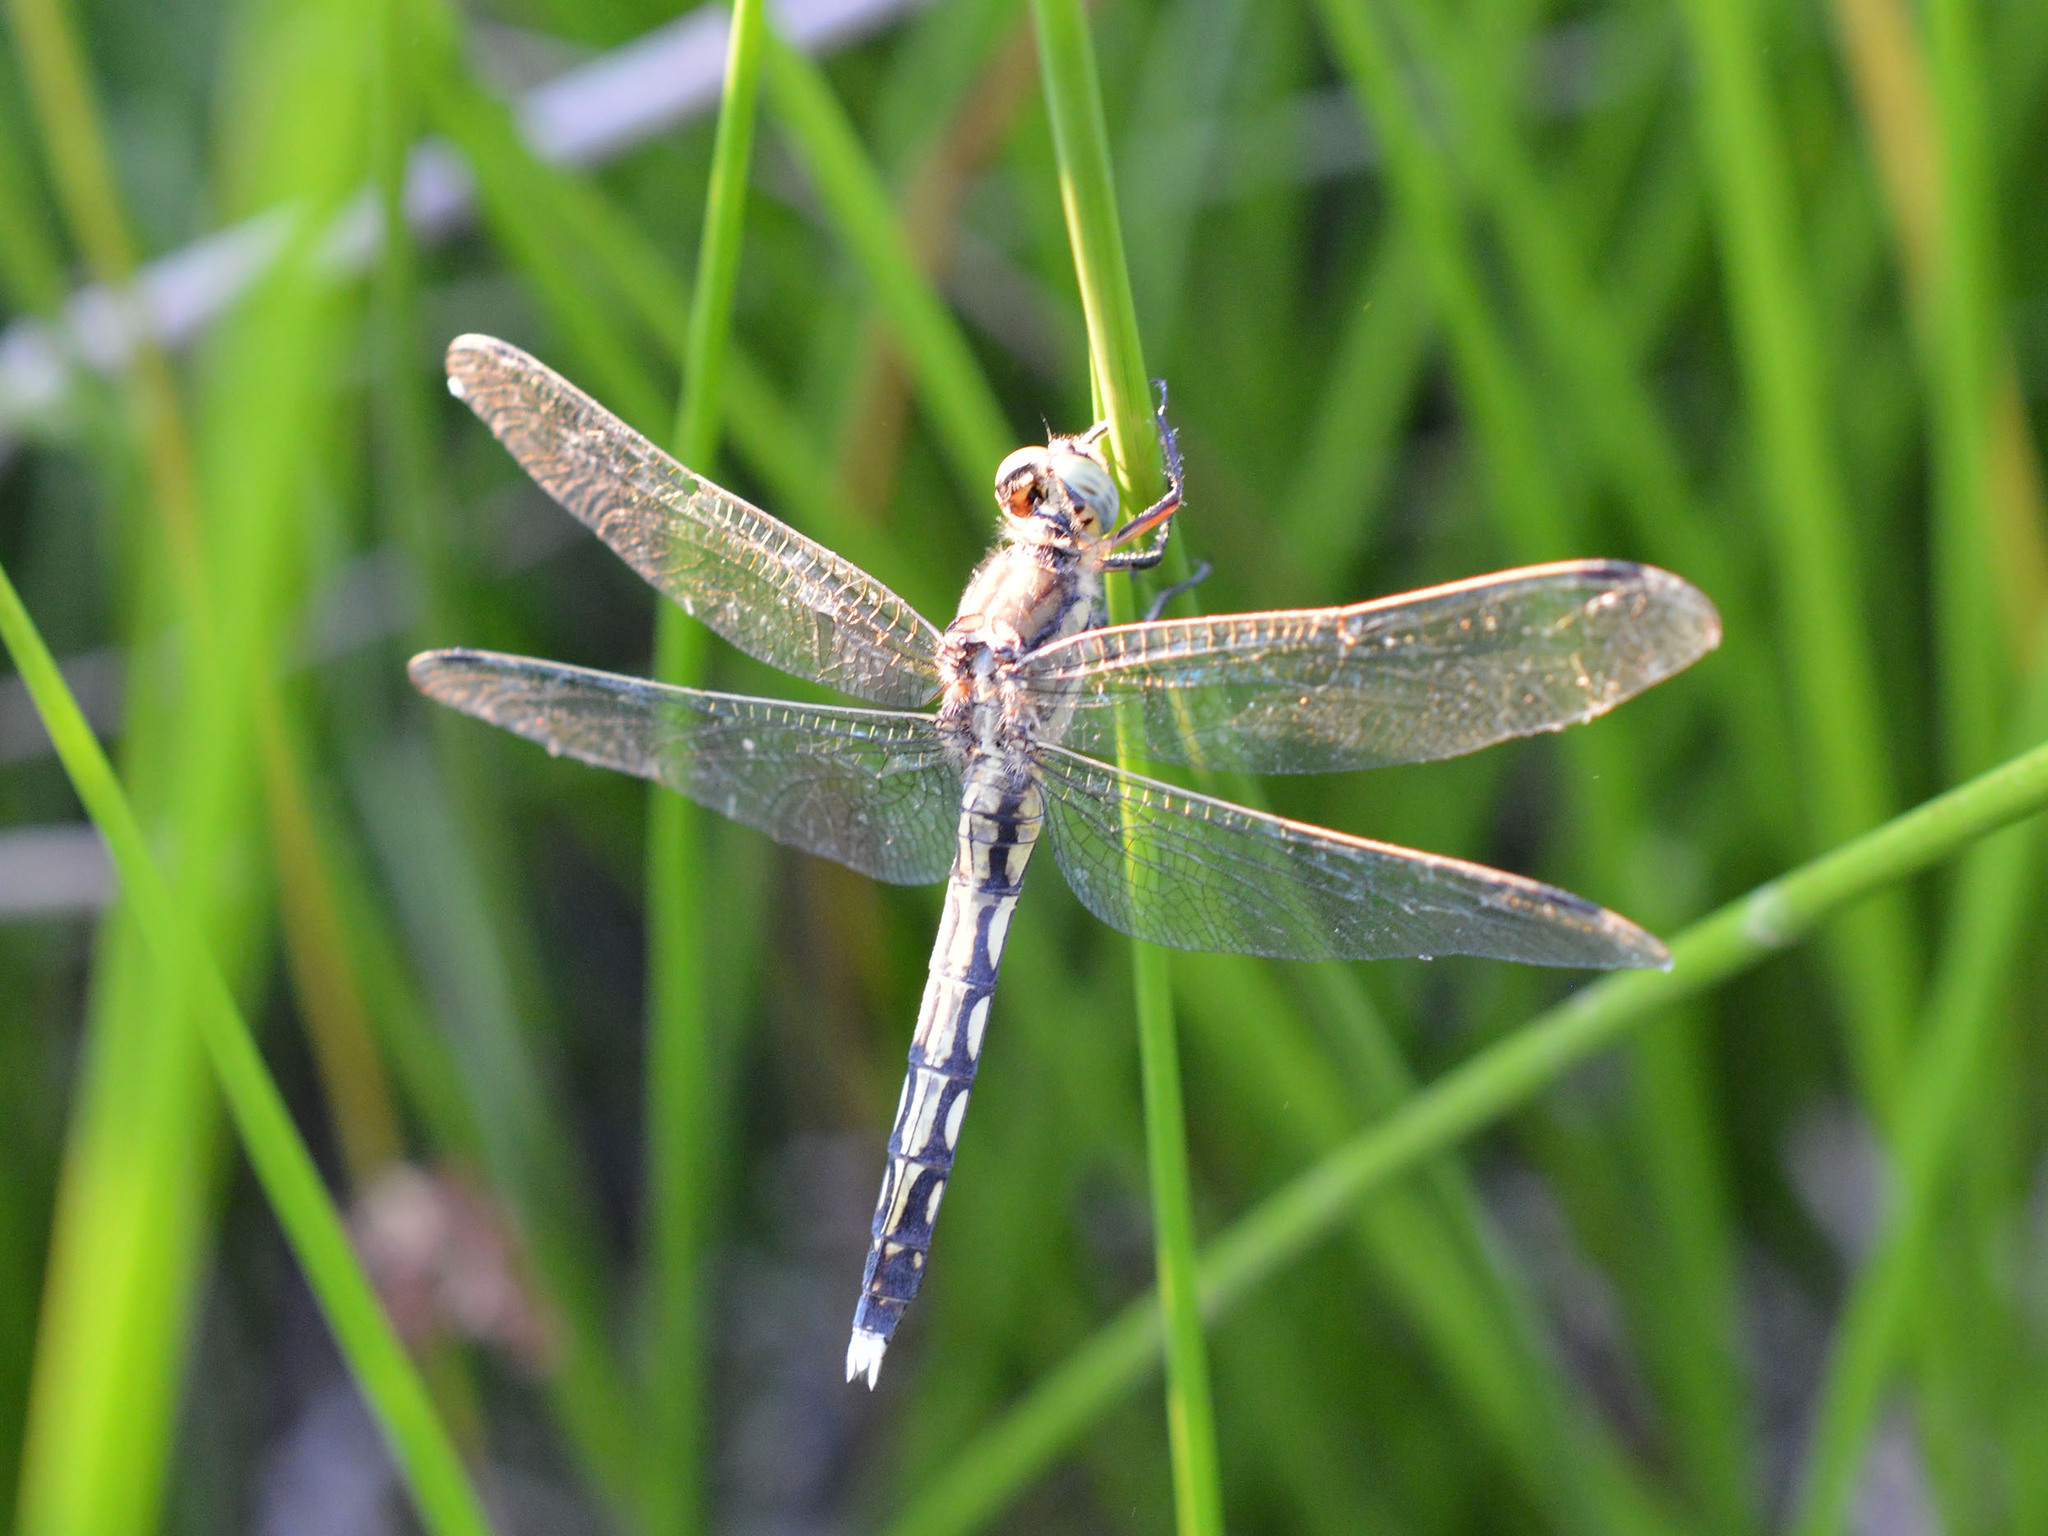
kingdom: Animalia
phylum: Arthropoda
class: Insecta
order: Odonata
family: Libellulidae
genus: Orthetrum
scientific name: Orthetrum albistylum
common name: White-tailed skimmer
